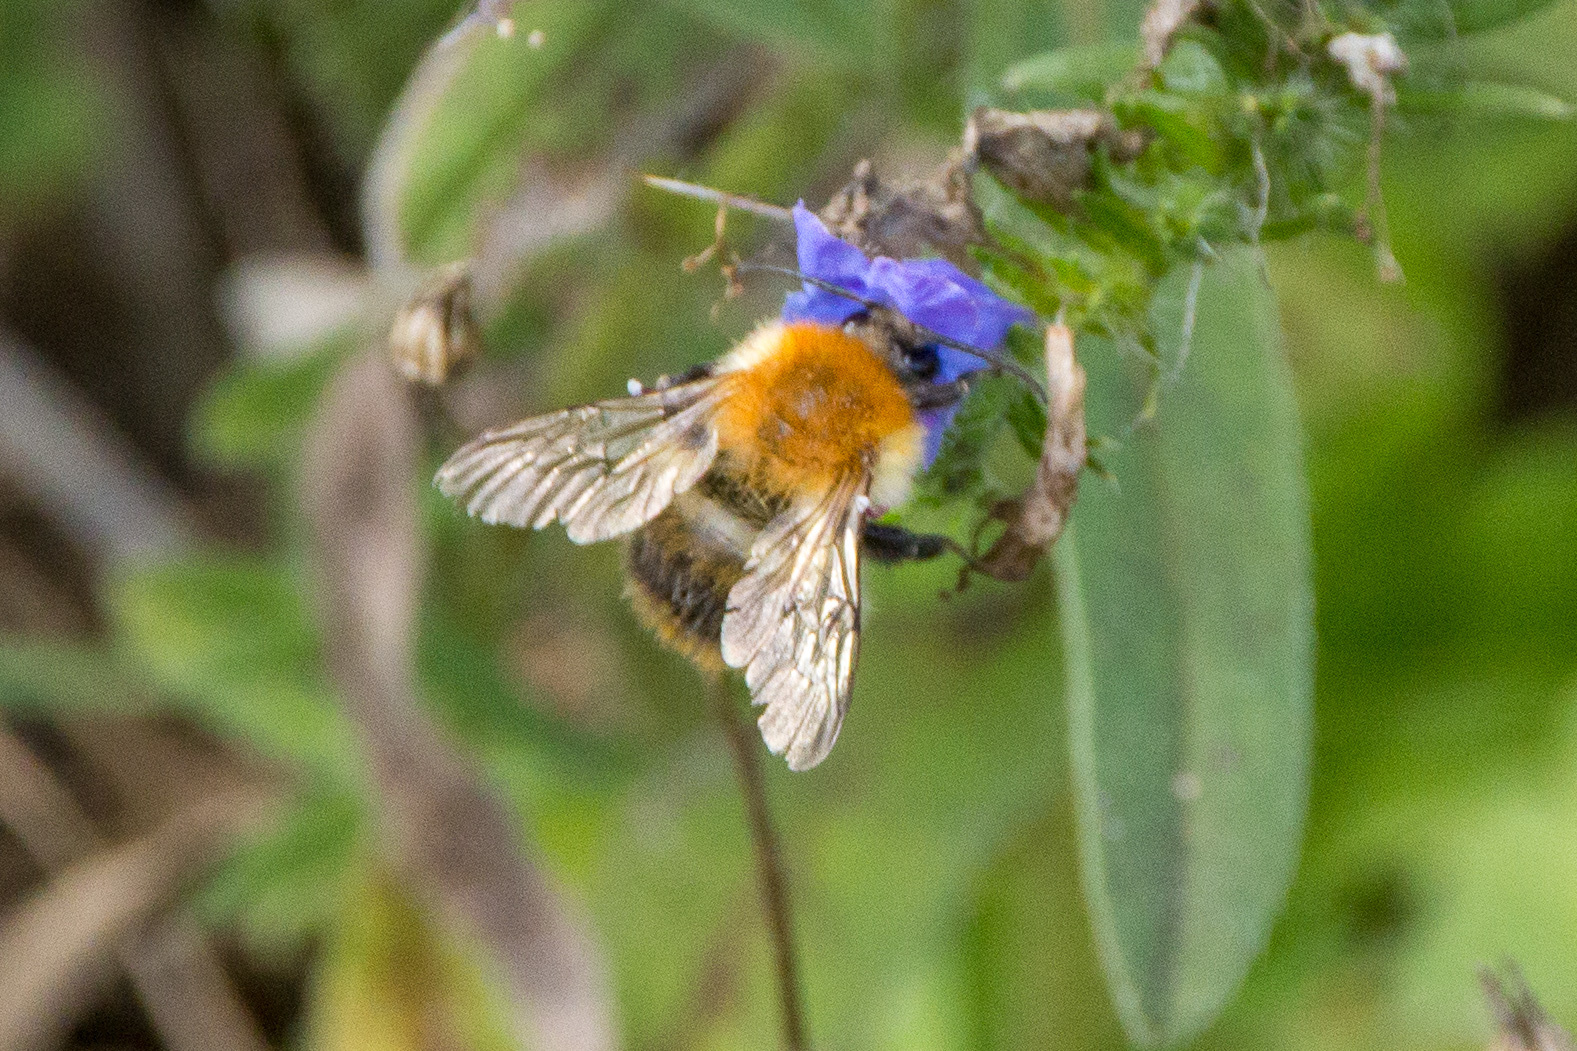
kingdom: Animalia
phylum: Arthropoda
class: Insecta
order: Hymenoptera
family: Apidae
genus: Bombus
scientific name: Bombus pascuorum
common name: Common carder bee
